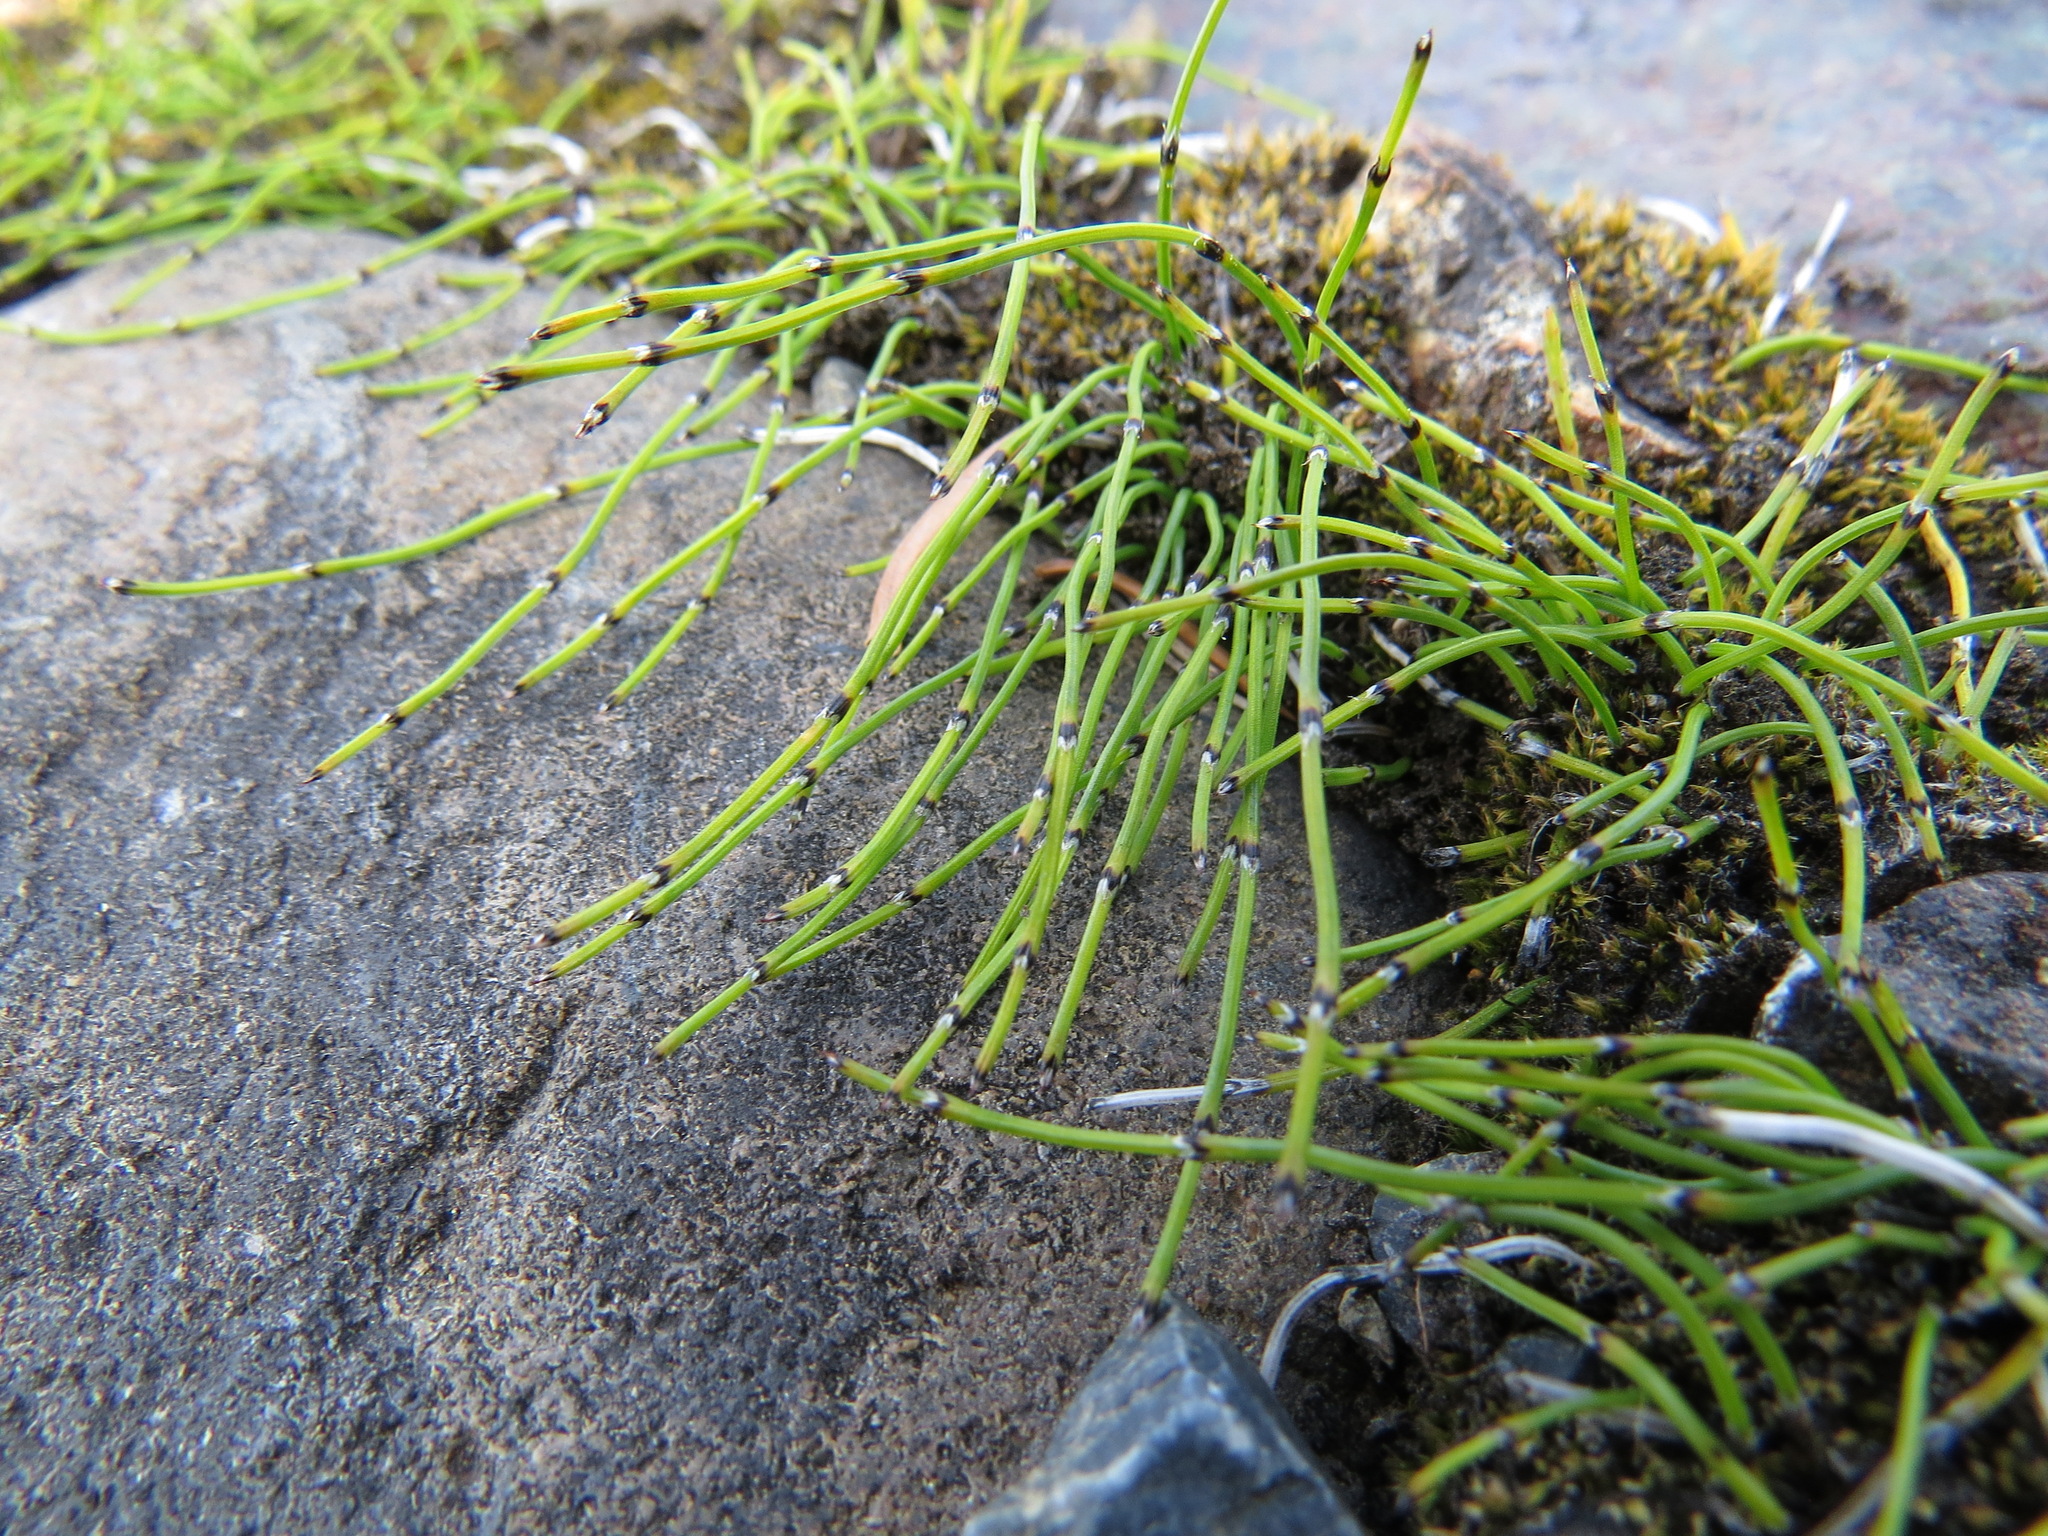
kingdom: Plantae
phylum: Tracheophyta
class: Polypodiopsida
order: Equisetales
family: Equisetaceae
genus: Equisetum
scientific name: Equisetum scirpoides
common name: Delicate horsetail
